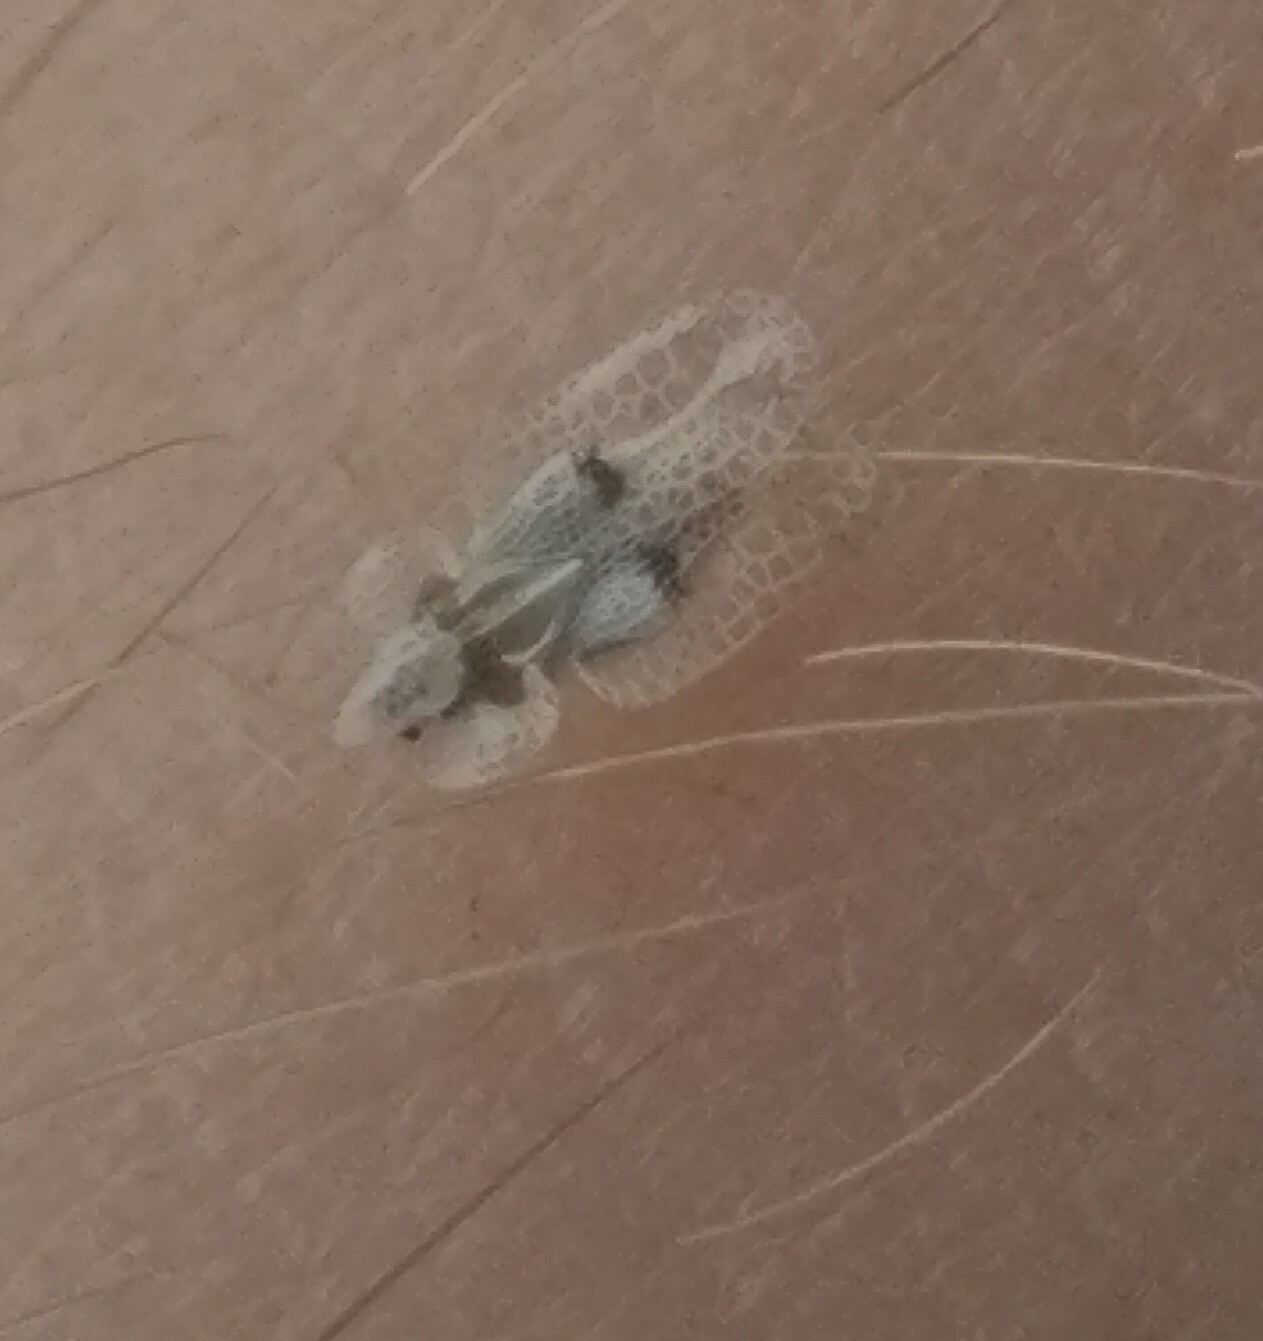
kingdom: Animalia
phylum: Arthropoda
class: Insecta
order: Hemiptera
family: Tingidae
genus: Corythucha
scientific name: Corythucha ciliata
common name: Sycamore lace bug
